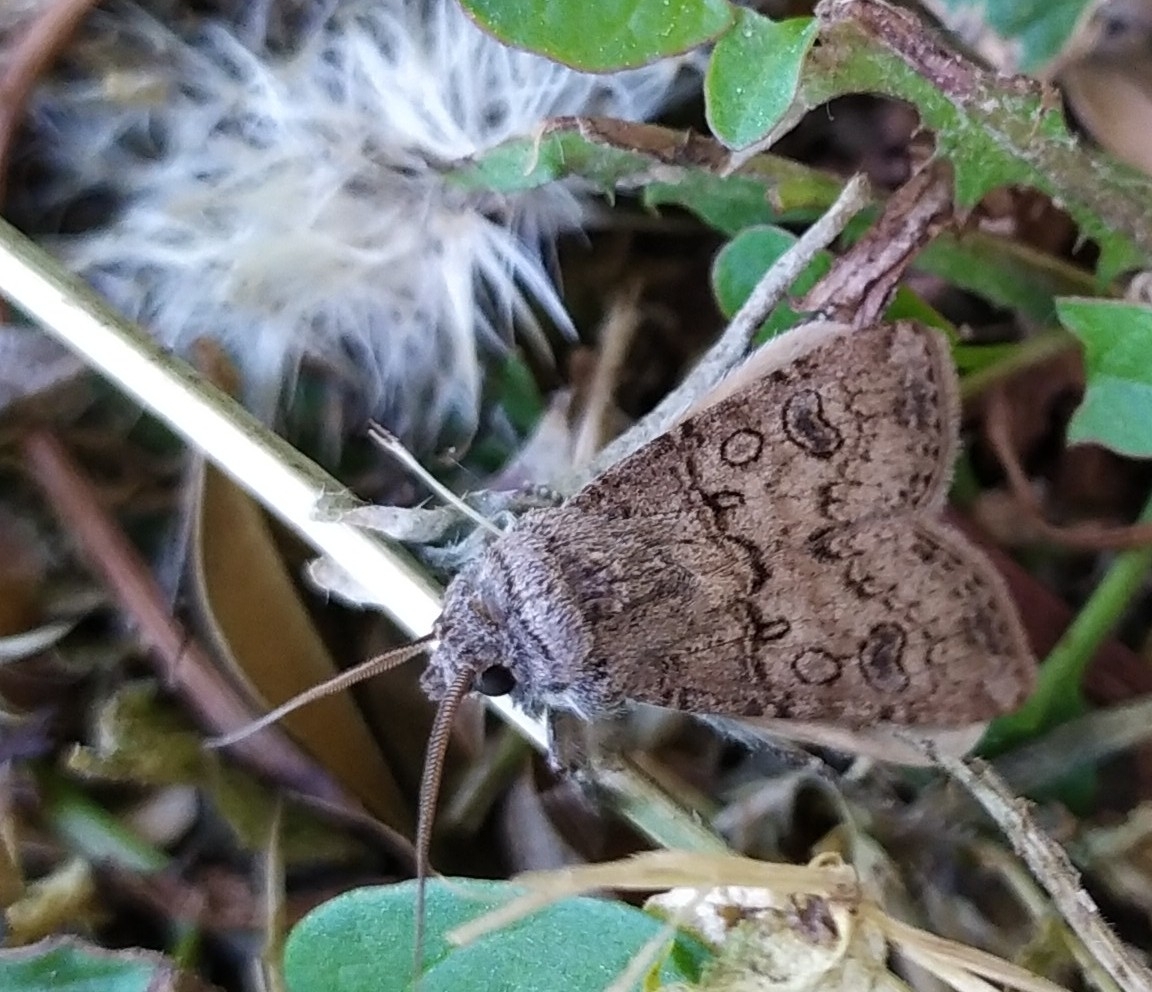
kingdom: Animalia
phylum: Arthropoda
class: Insecta
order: Lepidoptera
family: Noctuidae
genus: Agrotis
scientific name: Agrotis segetum
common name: Turnip moth
